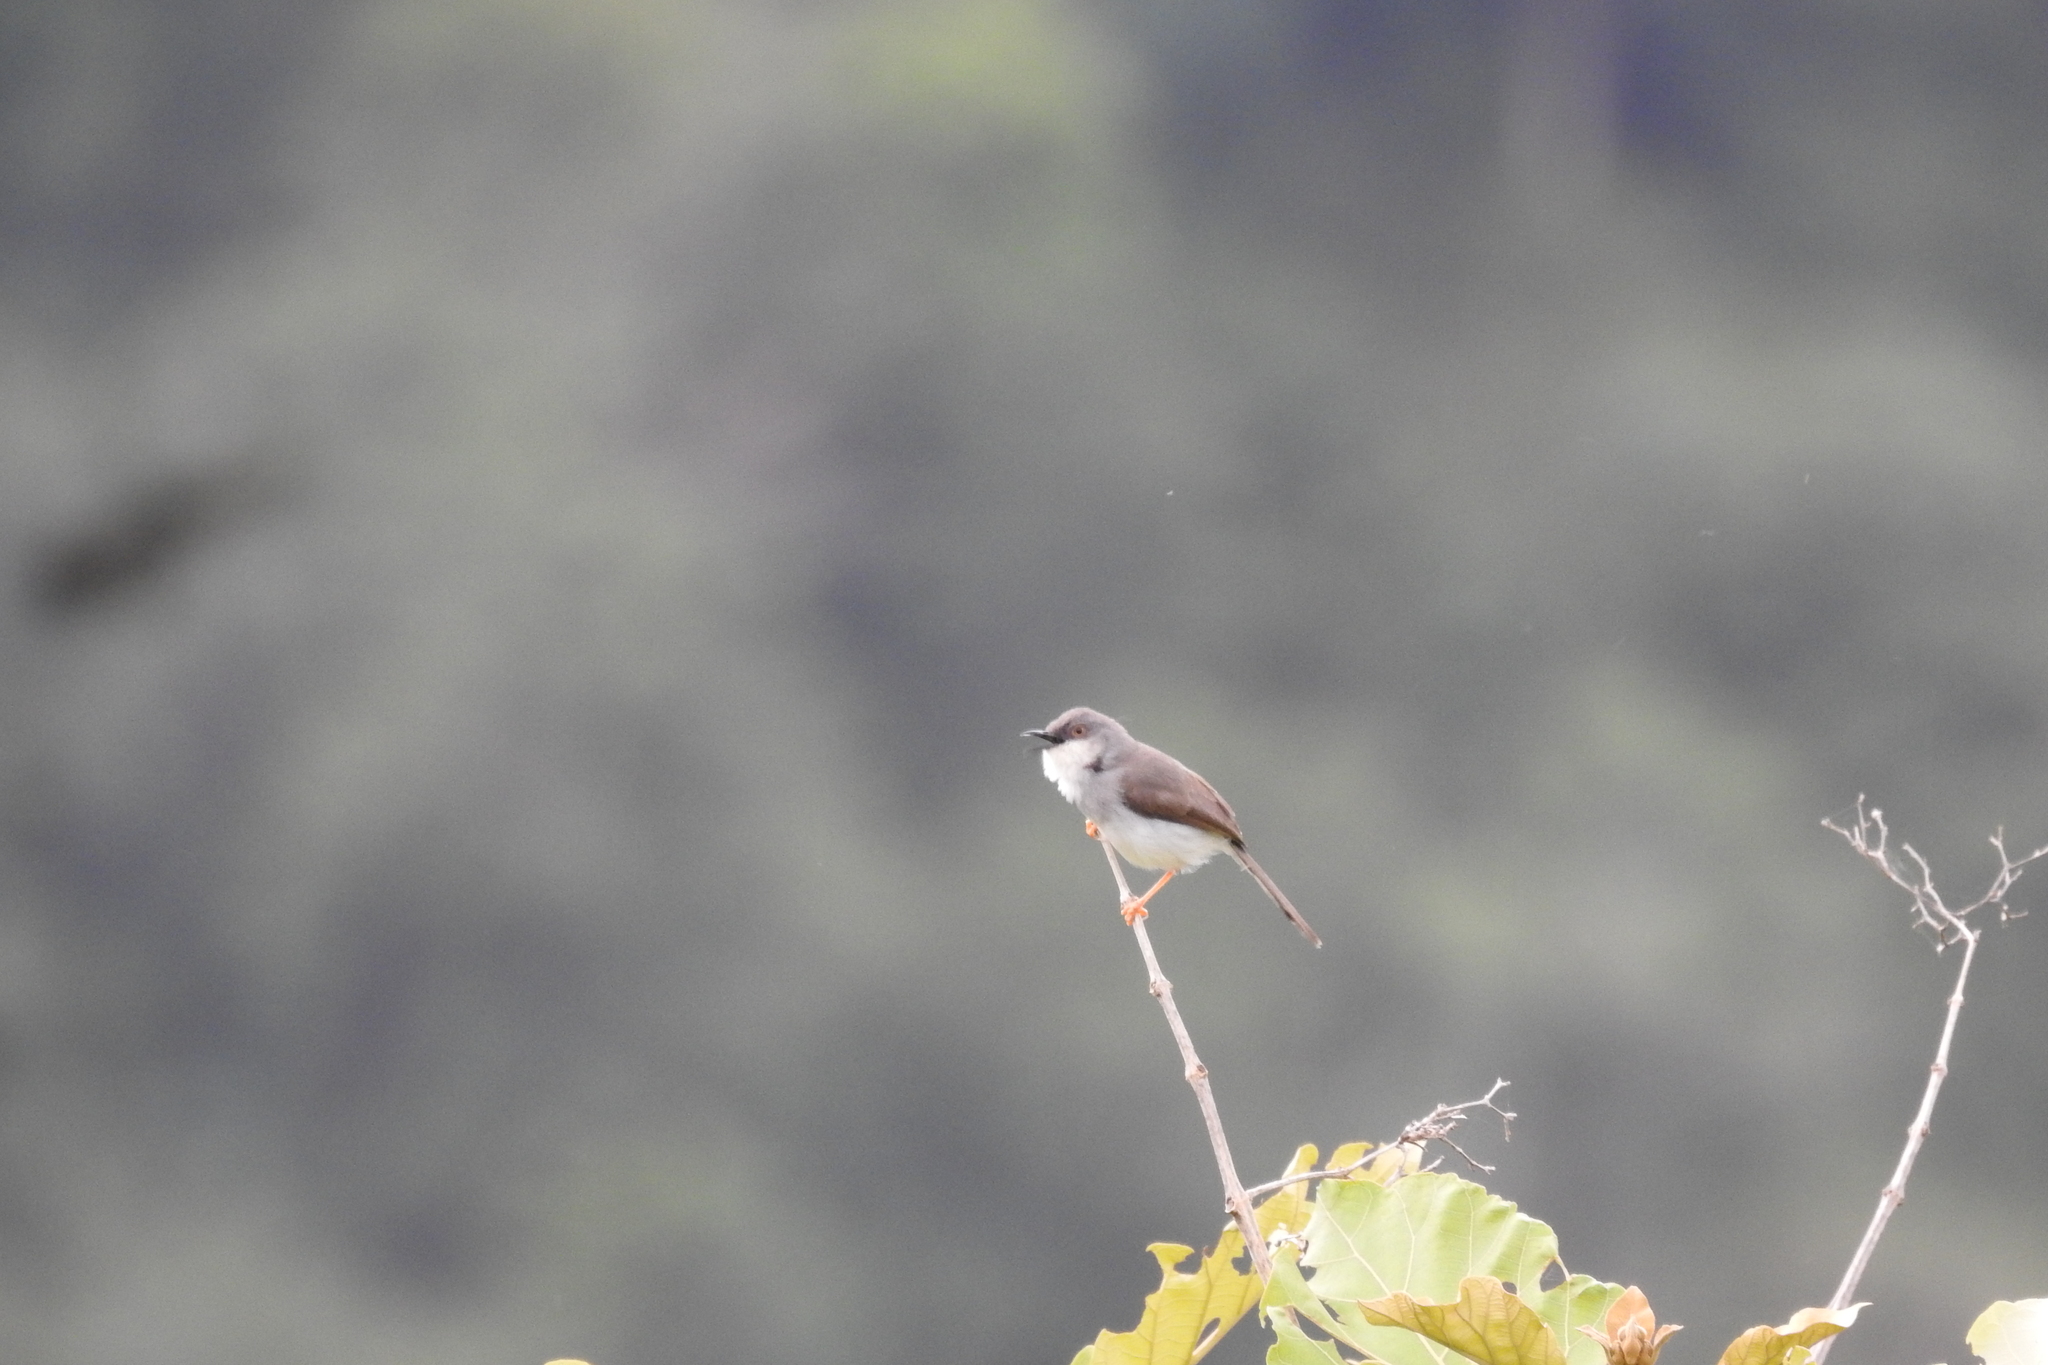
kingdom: Animalia
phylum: Chordata
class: Aves
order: Passeriformes
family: Cisticolidae
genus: Prinia
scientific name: Prinia hodgsonii
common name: Grey-breasted prinia
